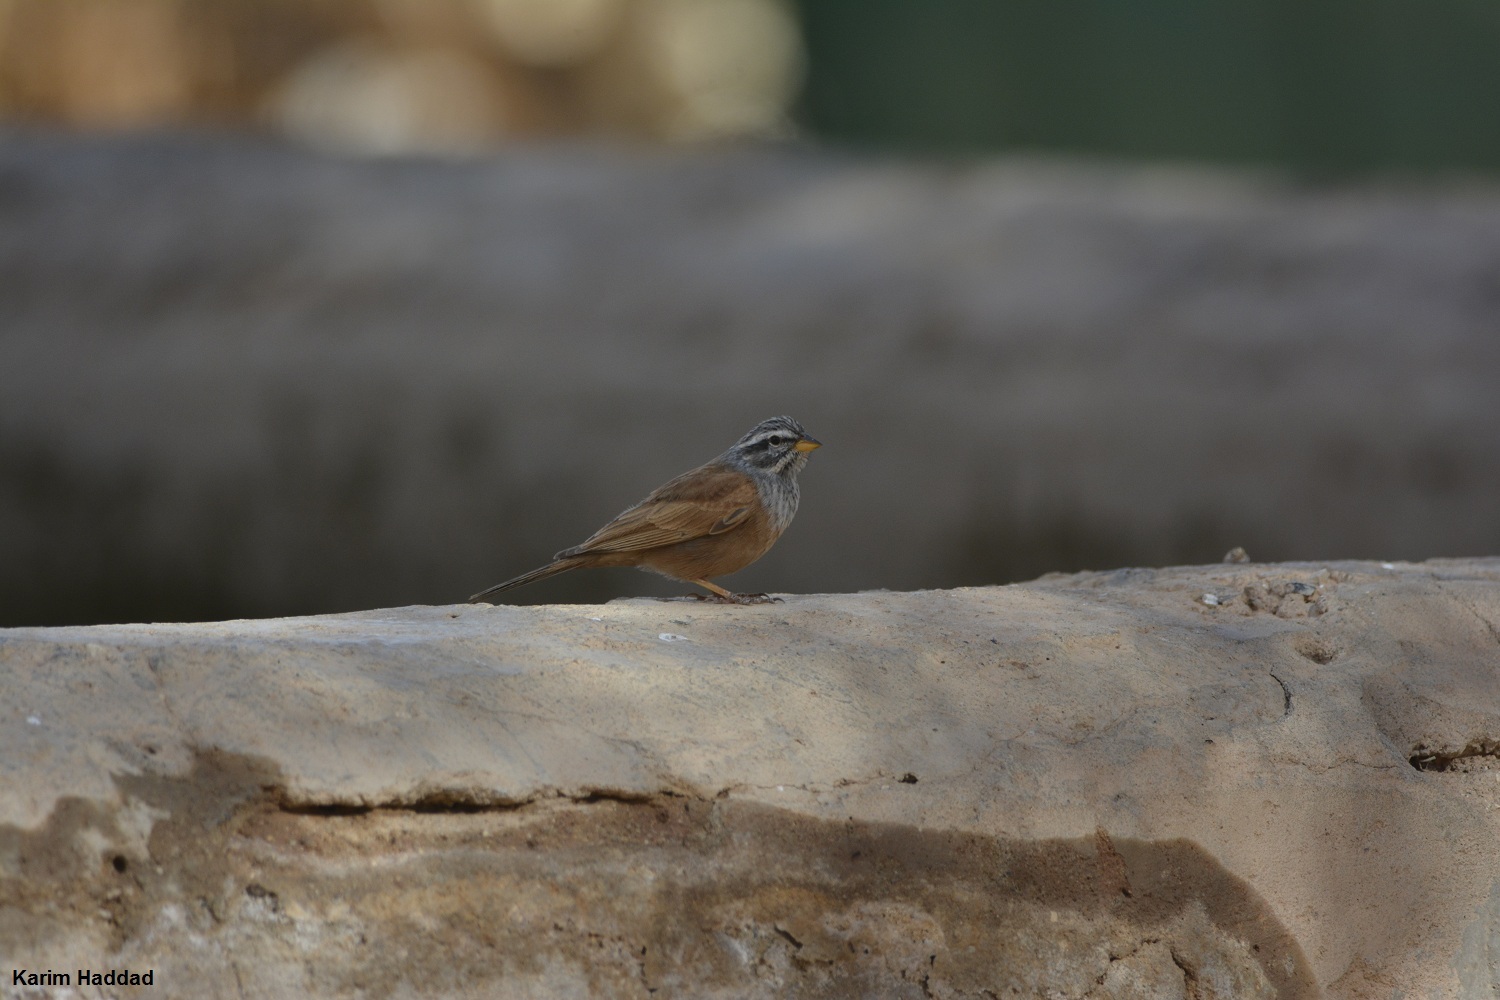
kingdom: Animalia
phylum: Chordata
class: Aves
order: Passeriformes
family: Emberizidae
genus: Emberiza
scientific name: Emberiza sahari
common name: House bunting
